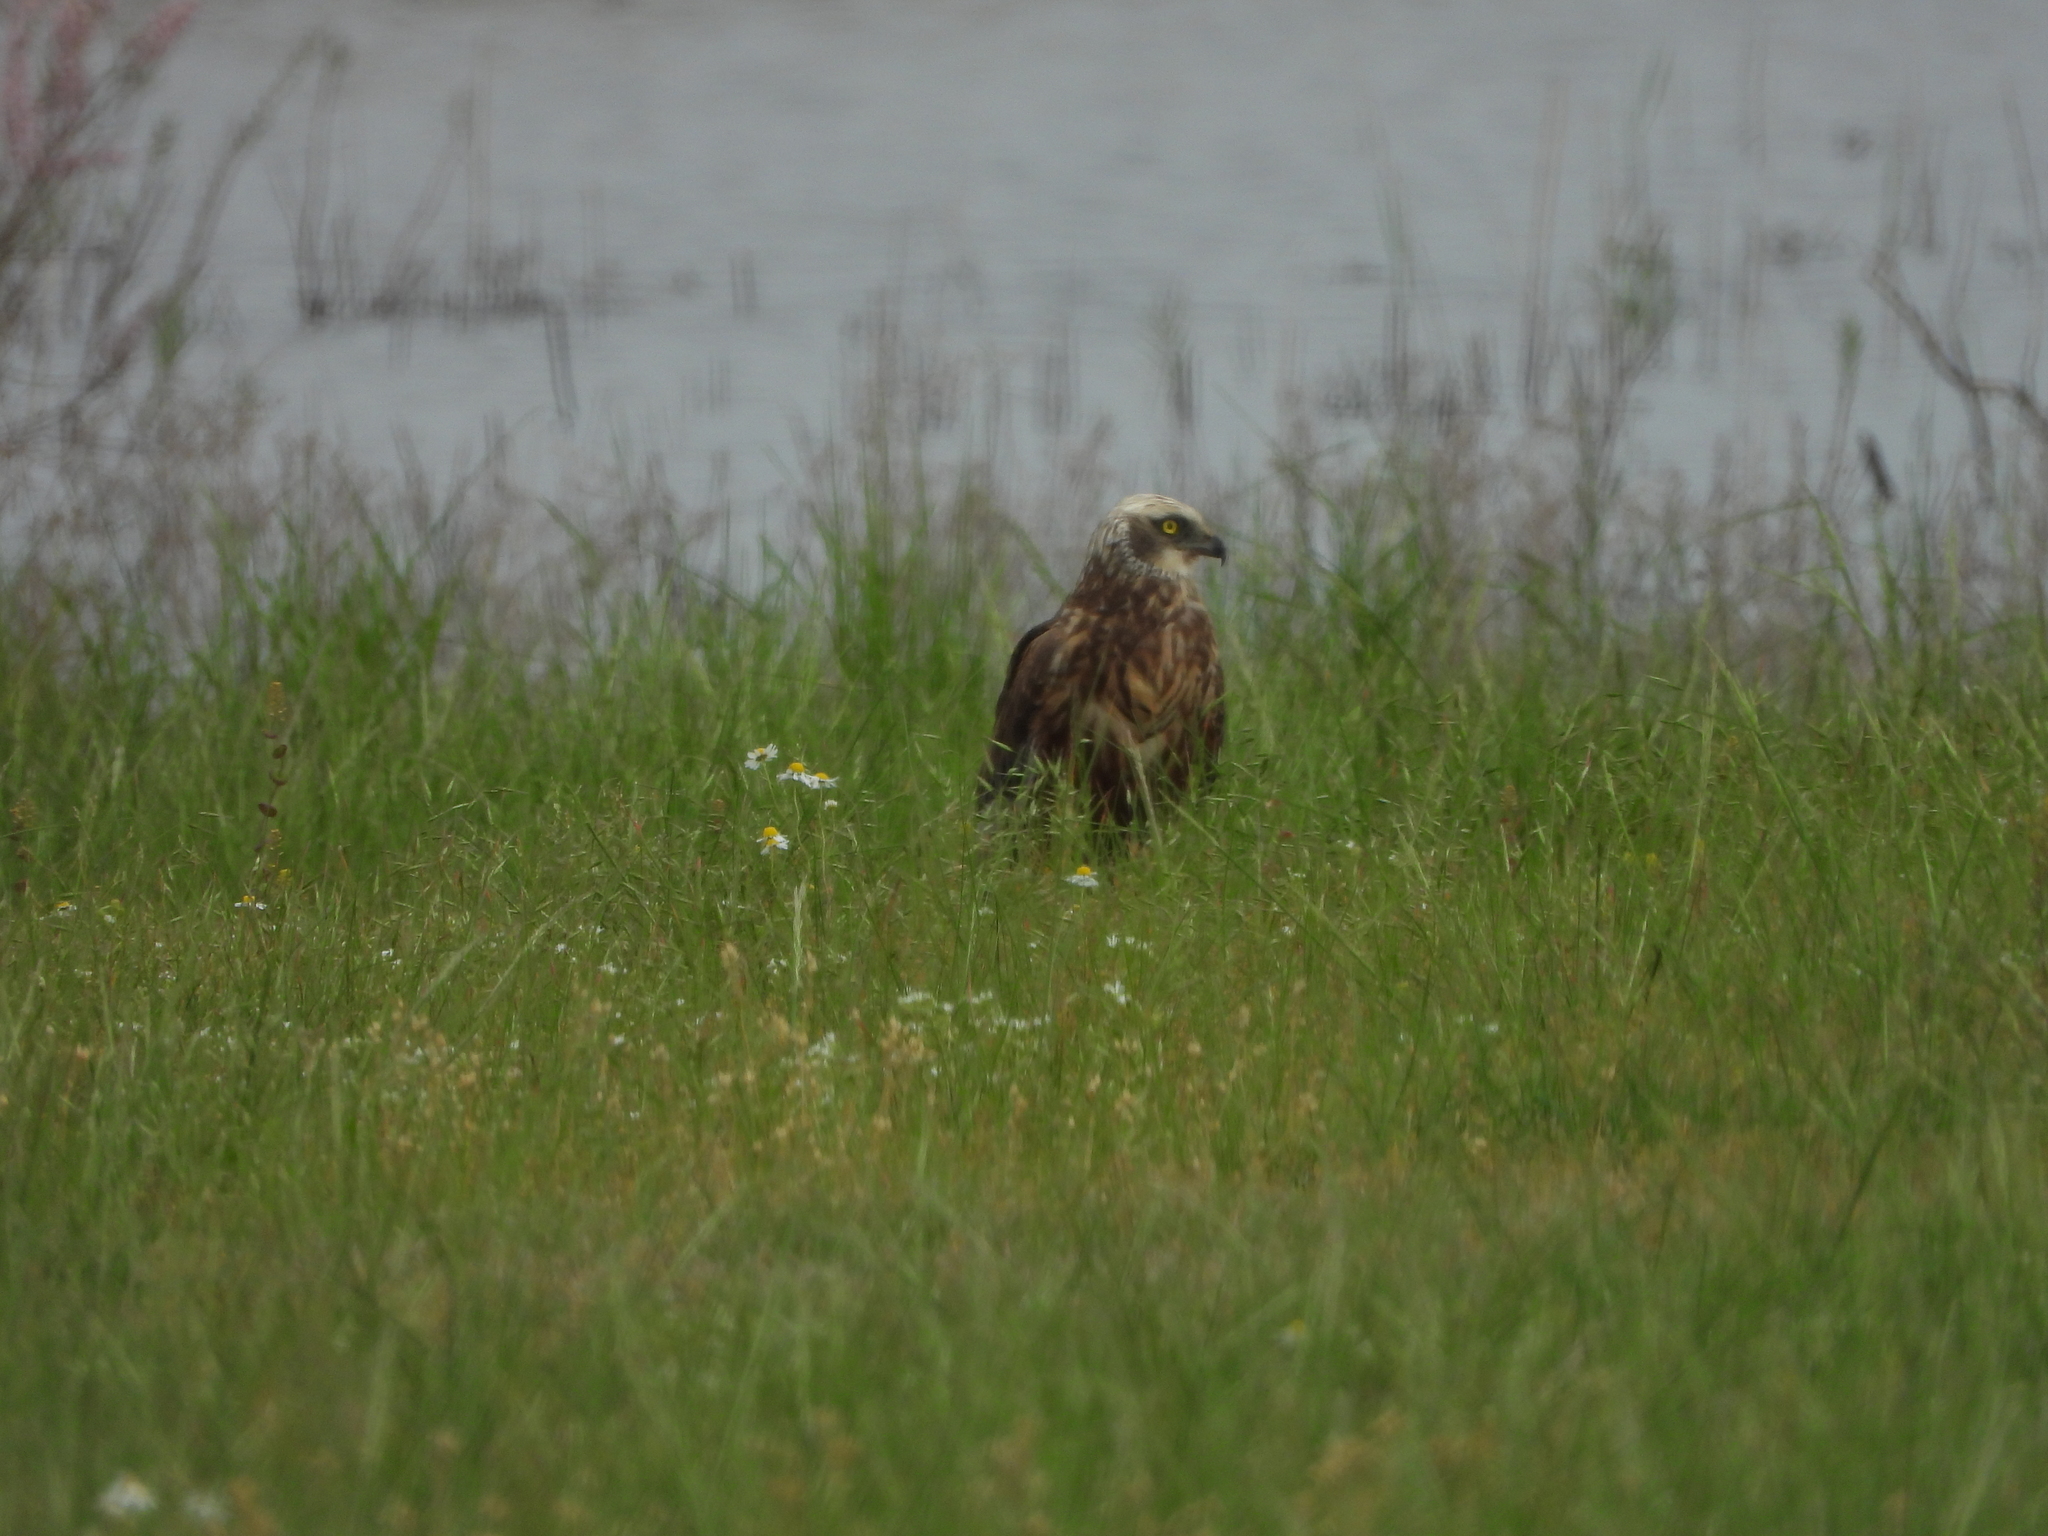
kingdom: Animalia
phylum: Chordata
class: Aves
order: Accipitriformes
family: Accipitridae
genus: Circus
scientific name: Circus aeruginosus
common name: Western marsh harrier
